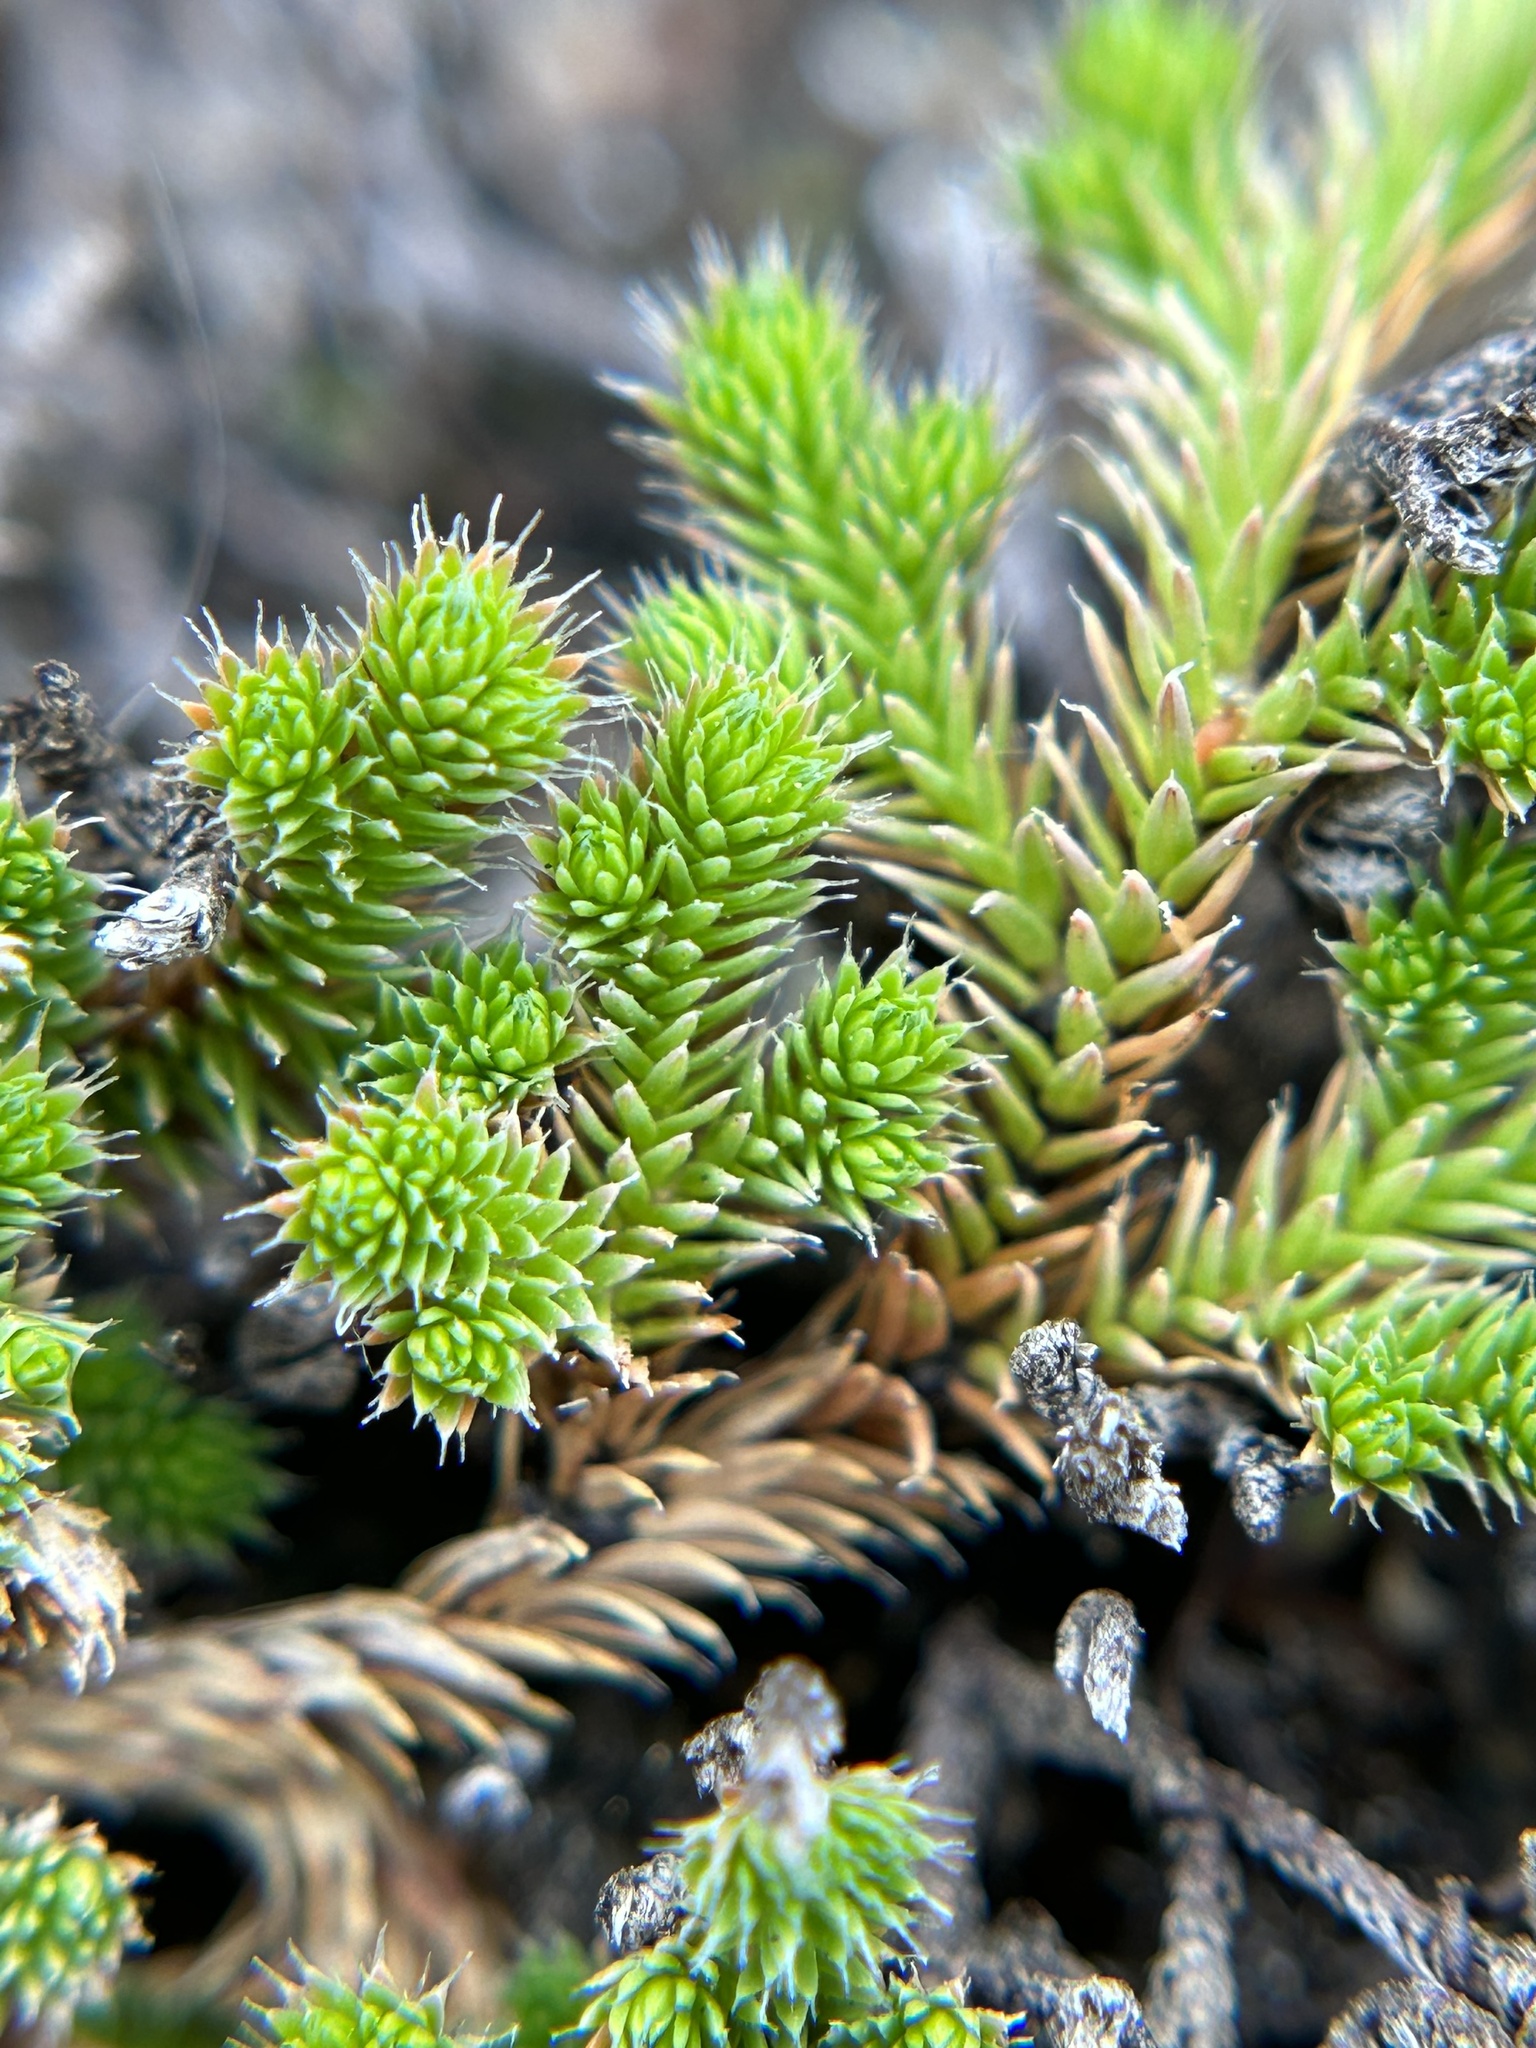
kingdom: Plantae
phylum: Tracheophyta
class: Lycopodiopsida
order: Selaginellales
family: Selaginellaceae
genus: Selaginella
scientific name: Selaginella hansenii
